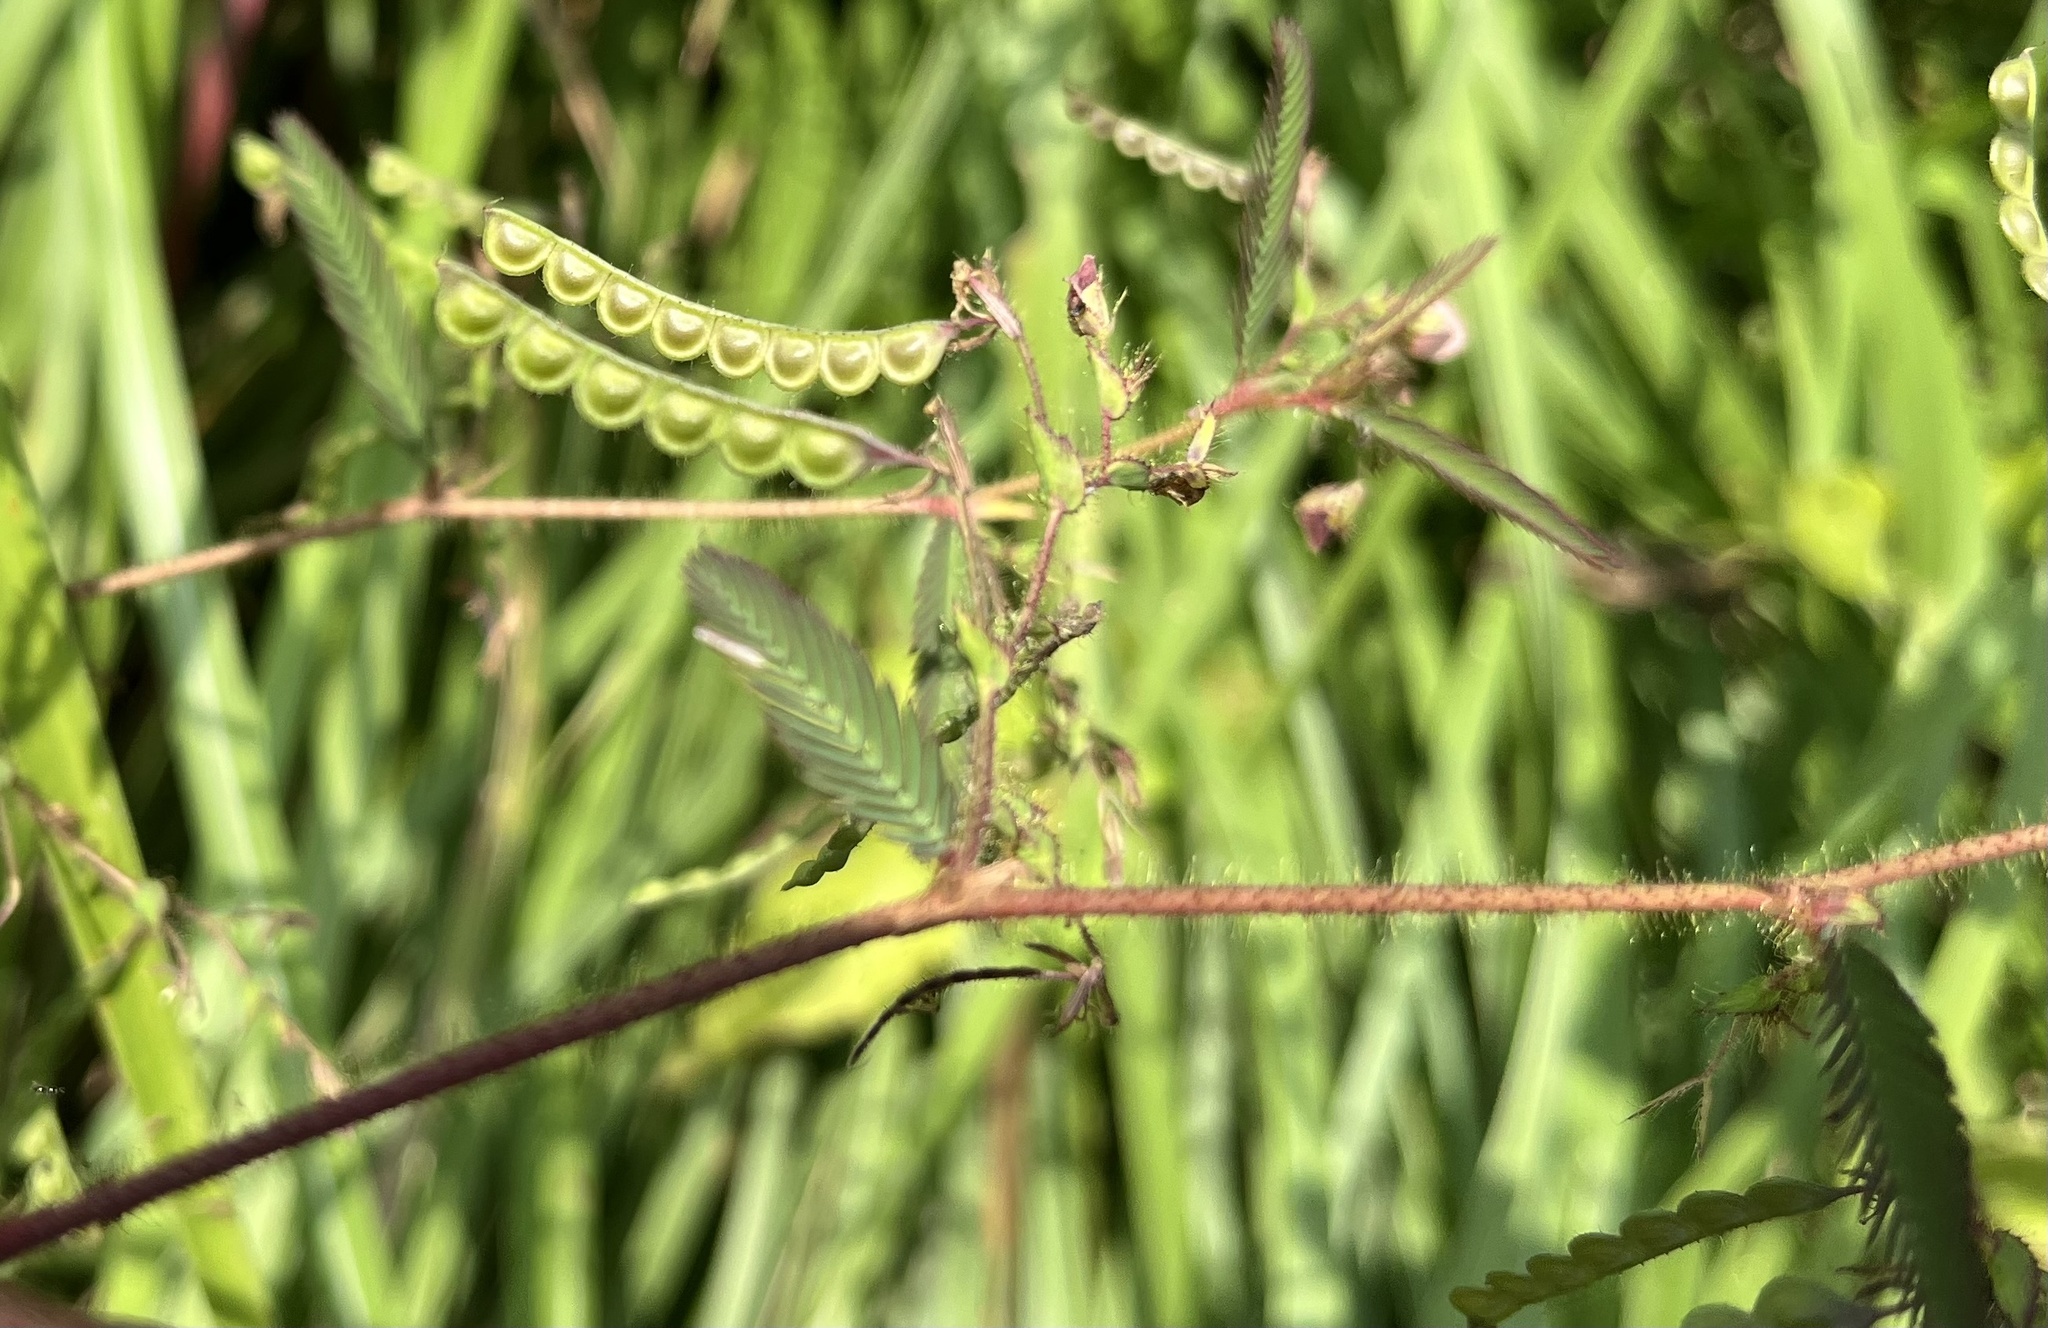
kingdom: Plantae
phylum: Tracheophyta
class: Magnoliopsida
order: Fabales
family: Fabaceae
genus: Aeschynomene
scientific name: Aeschynomene americana
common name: Joint-vetch
